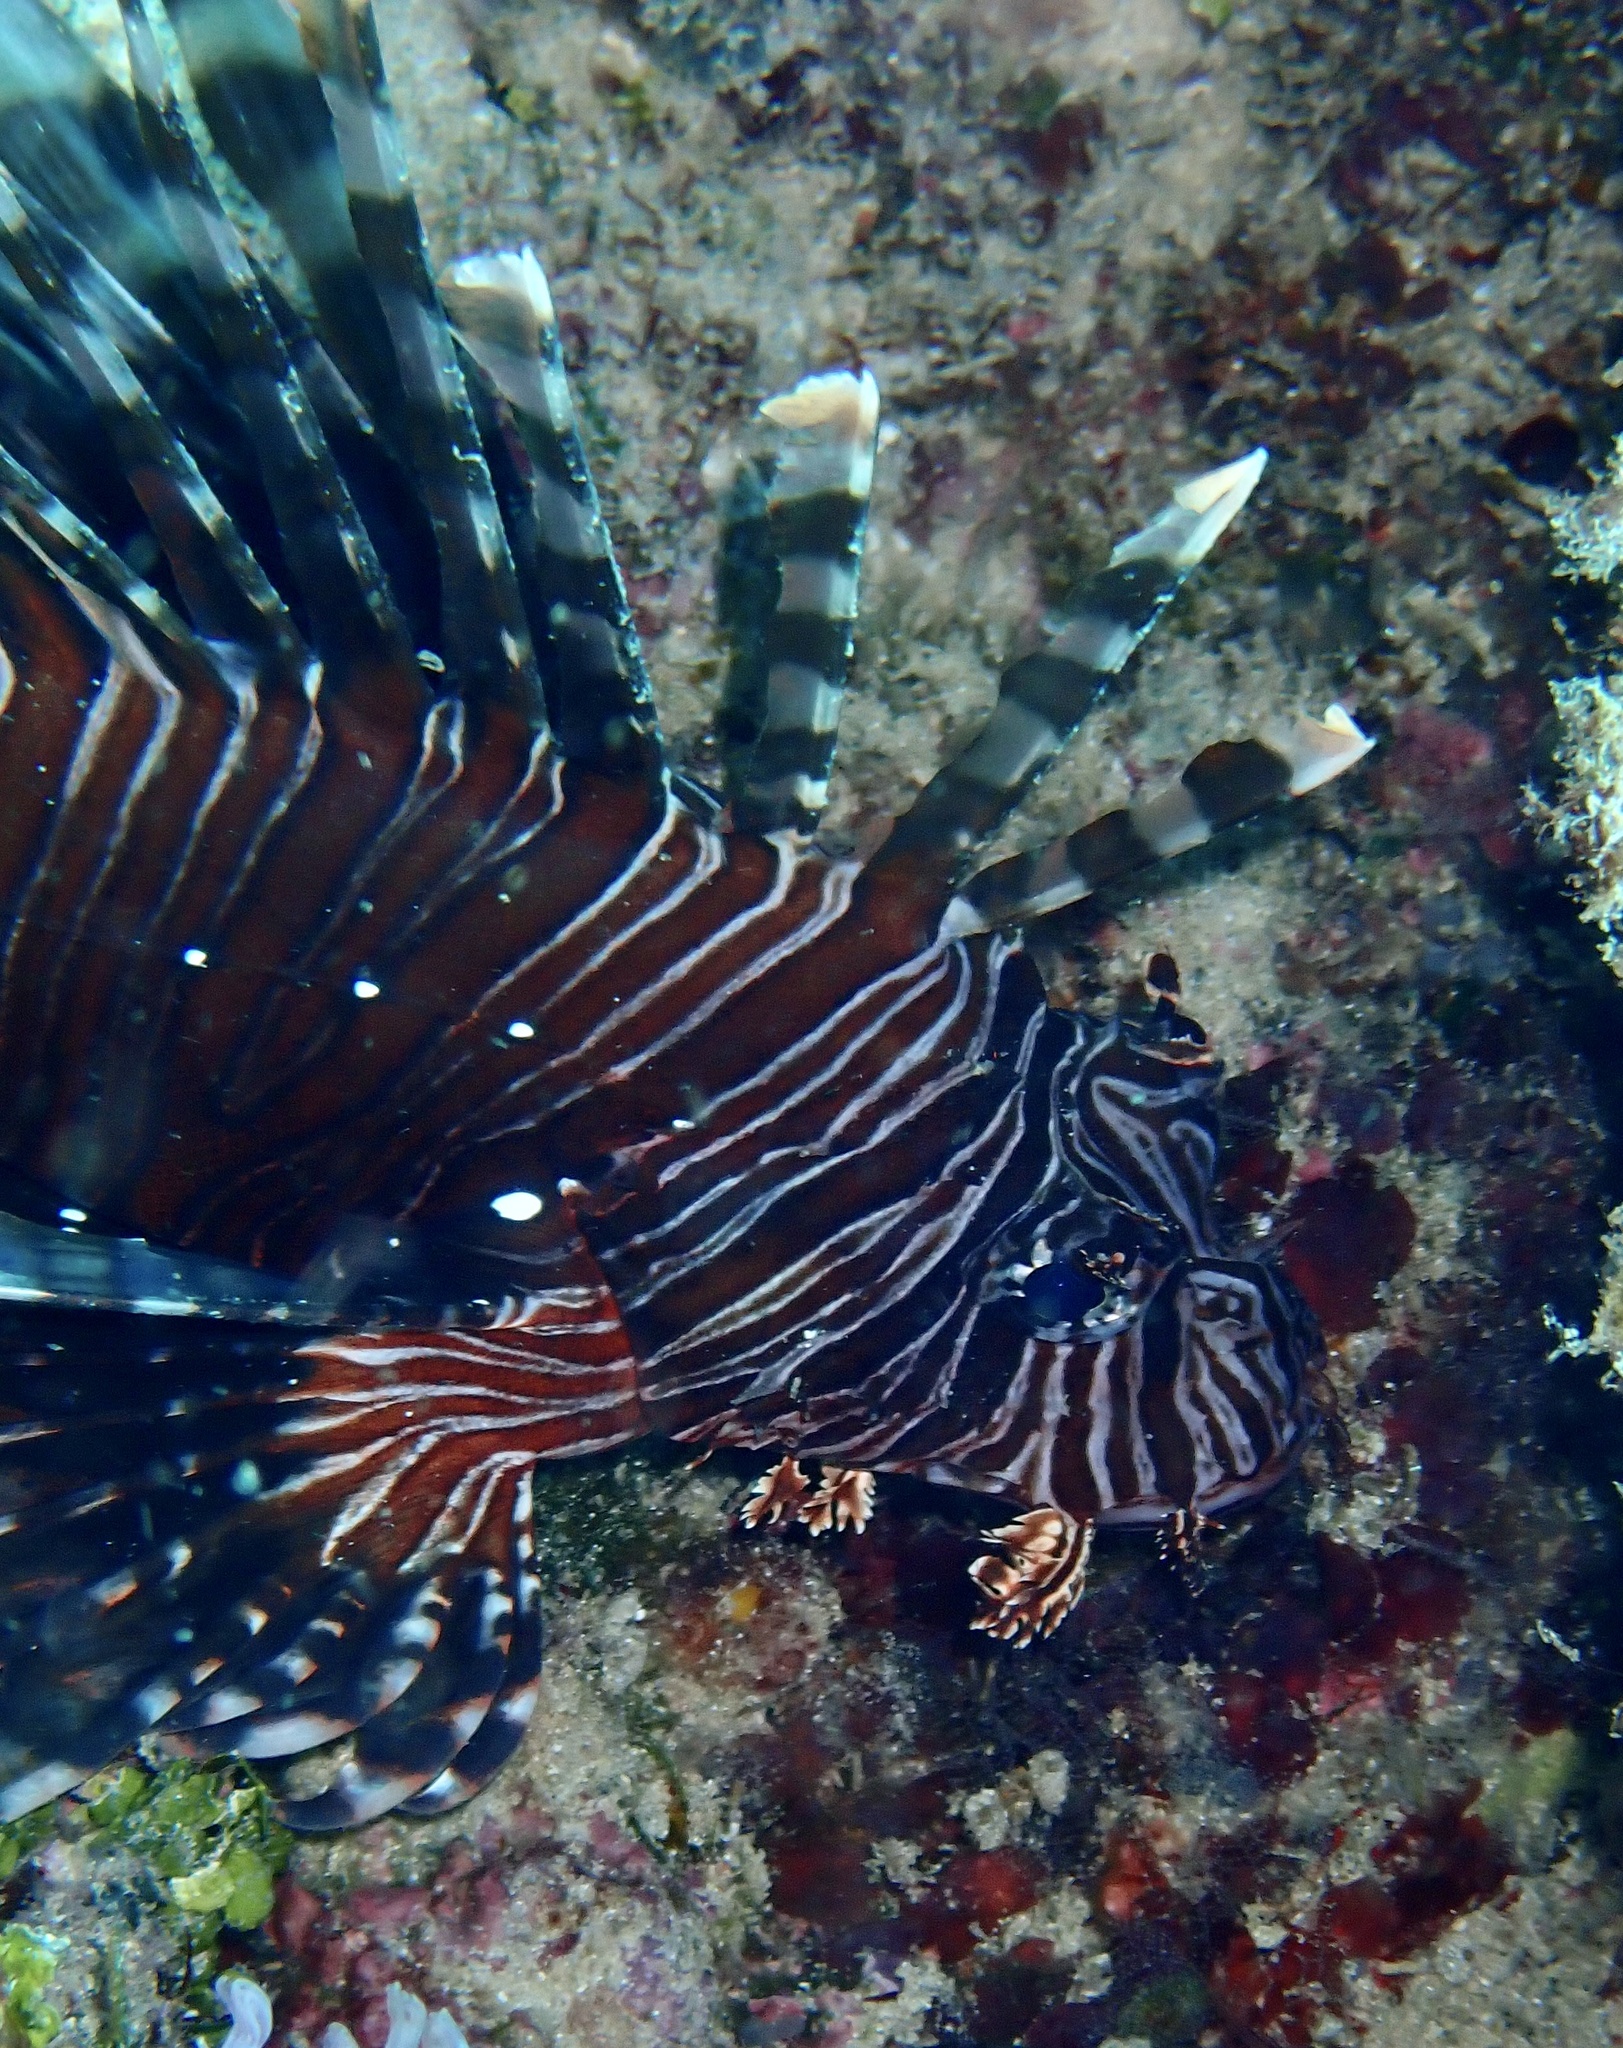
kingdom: Animalia
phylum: Chordata
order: Scorpaeniformes
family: Scorpaenidae
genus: Pterois
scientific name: Pterois volitans
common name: Lionfish
